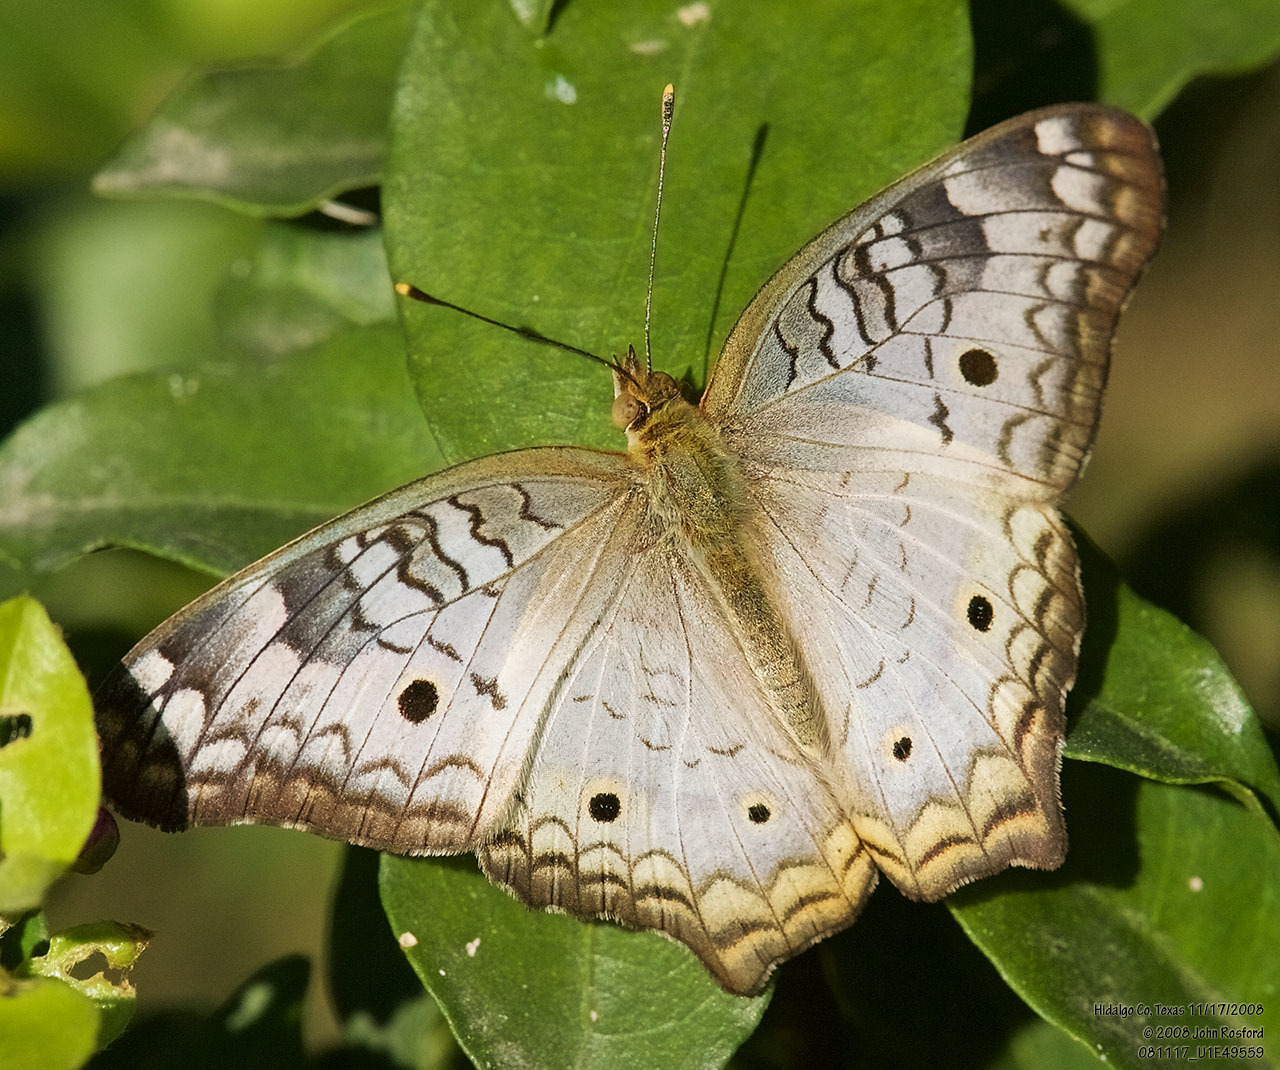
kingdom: Animalia
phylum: Arthropoda
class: Insecta
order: Lepidoptera
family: Nymphalidae
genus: Anartia
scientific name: Anartia jatrophae
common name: White peacock
